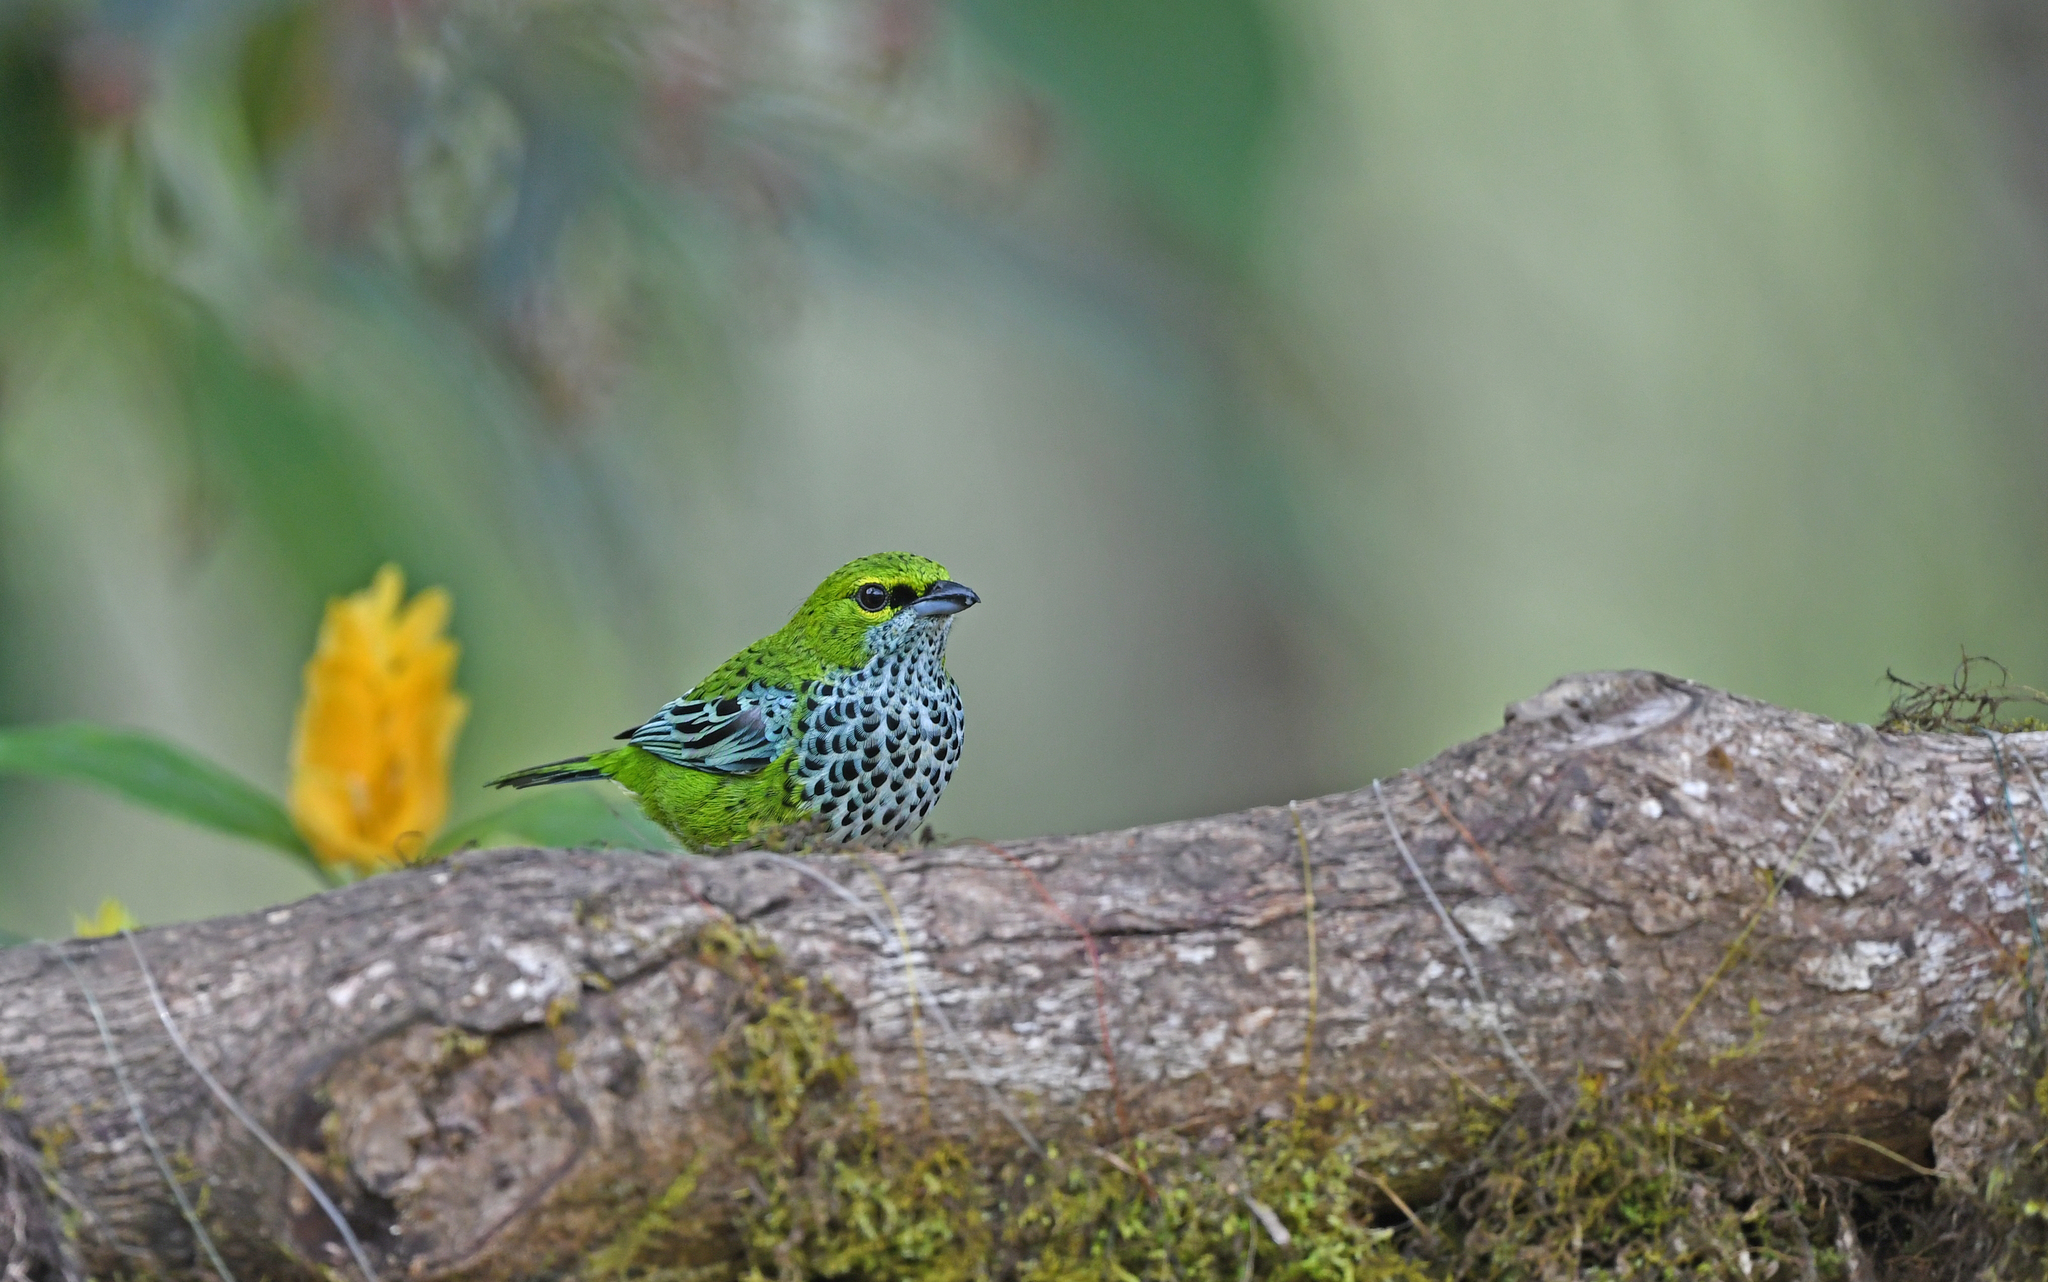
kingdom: Animalia
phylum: Chordata
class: Aves
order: Passeriformes
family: Thraupidae
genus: Ixothraupis
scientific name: Ixothraupis guttata
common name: Speckled tanager
